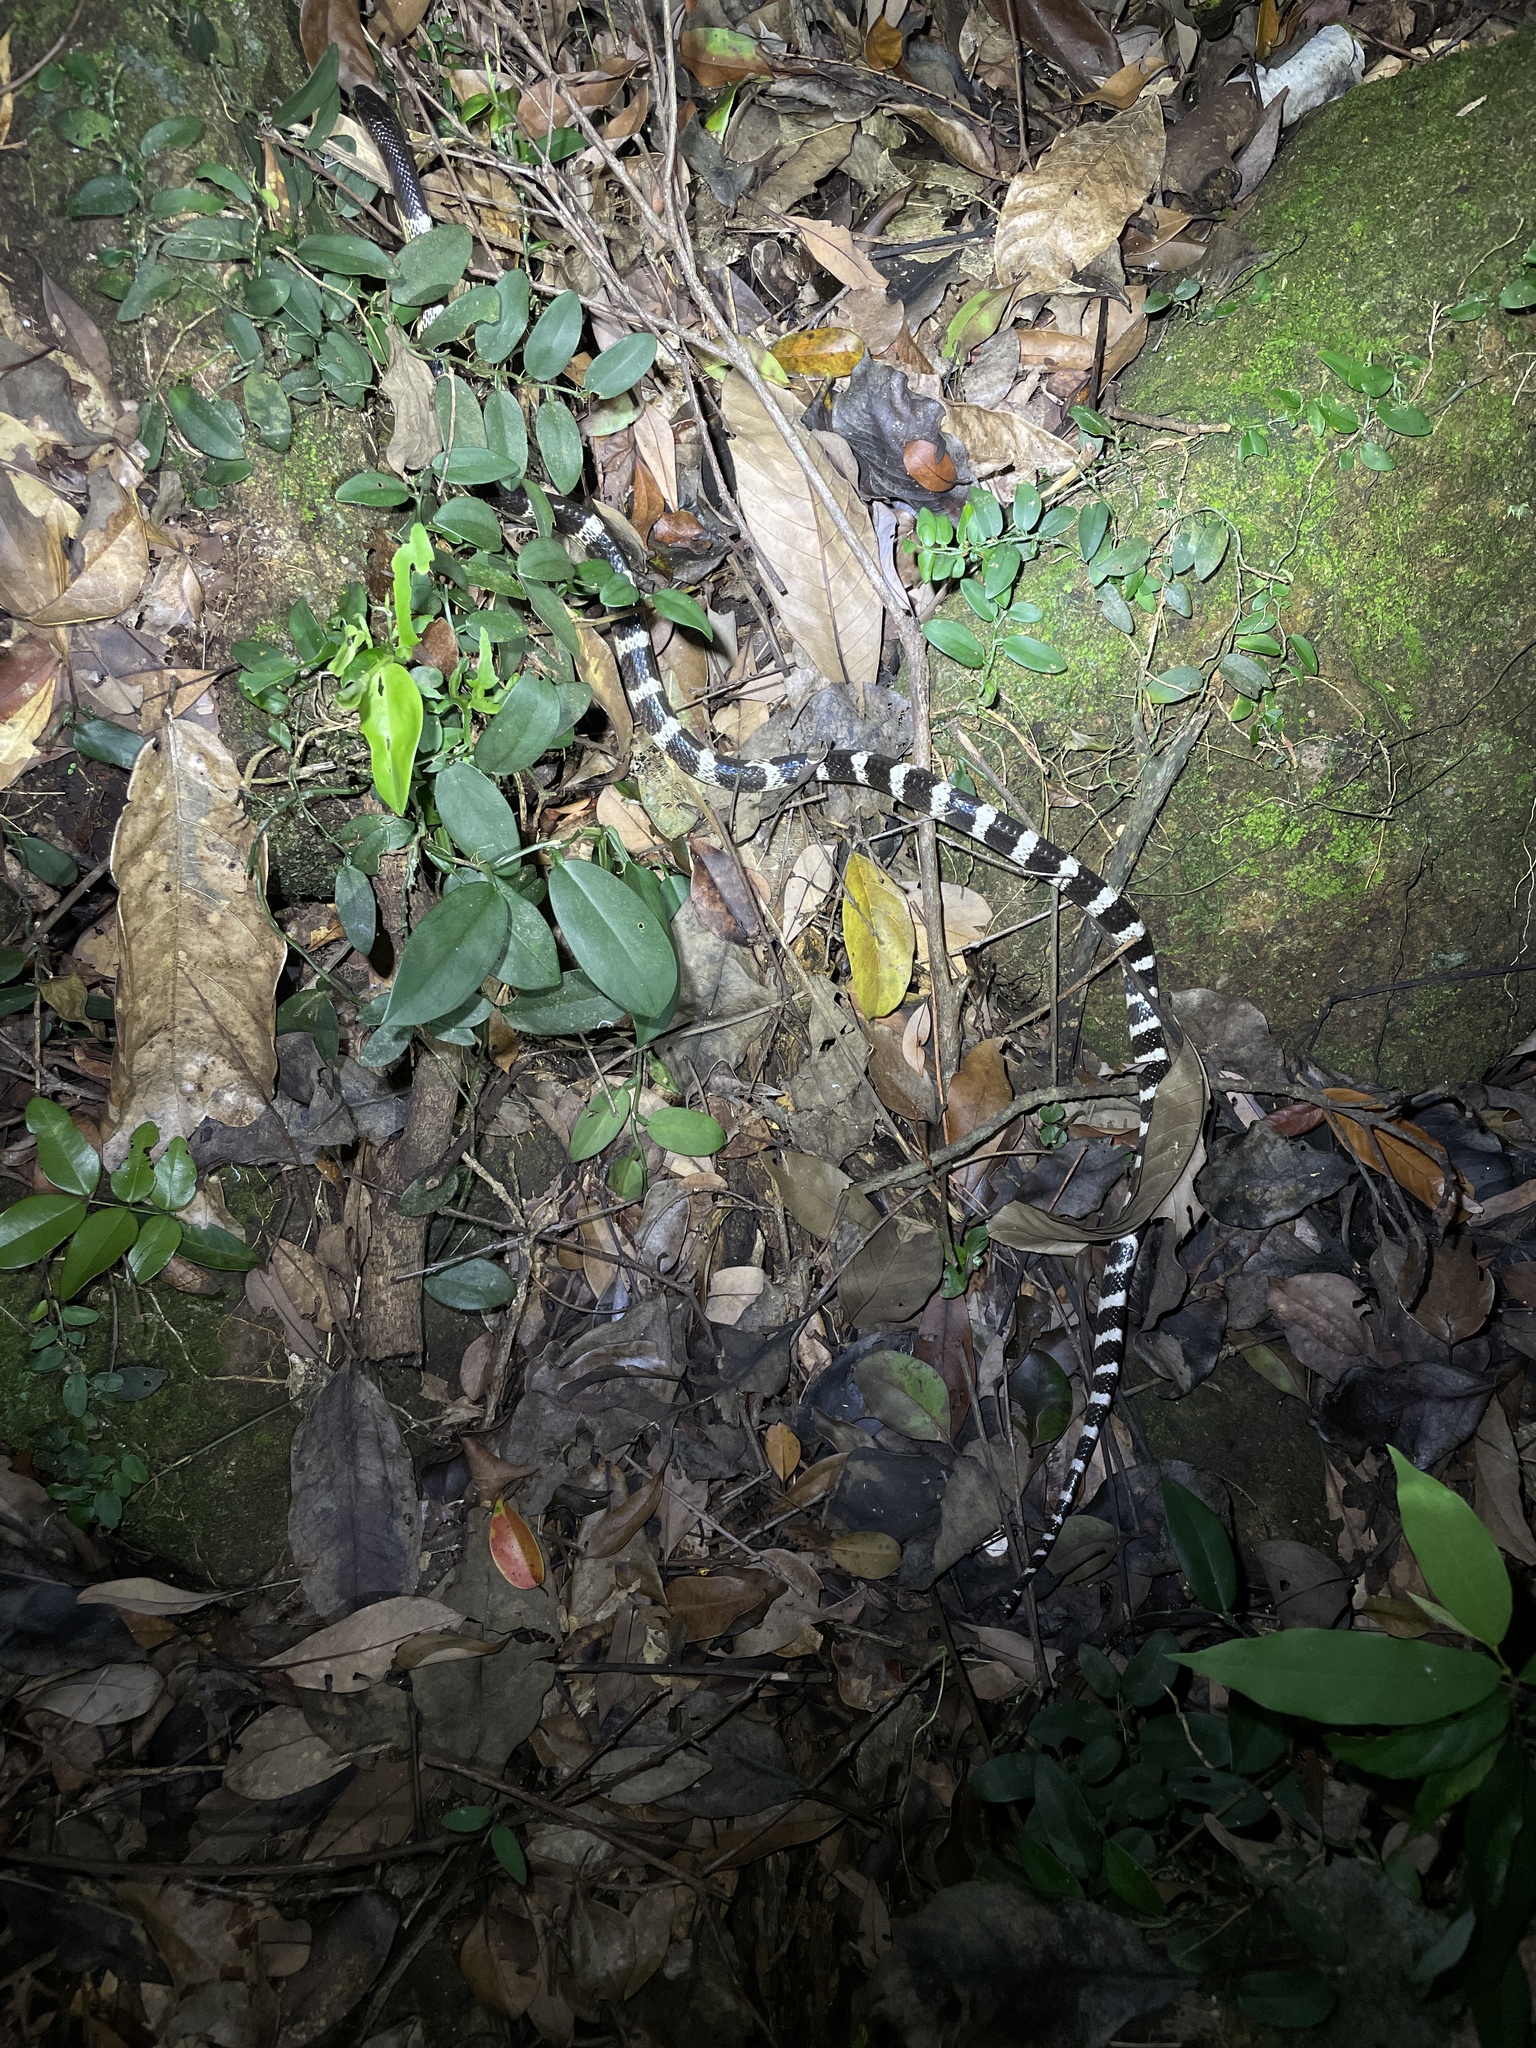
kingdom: Animalia
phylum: Chordata
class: Squamata
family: Elapidae
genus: Bungarus
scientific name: Bungarus multicinctus
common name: Many-banded krait
